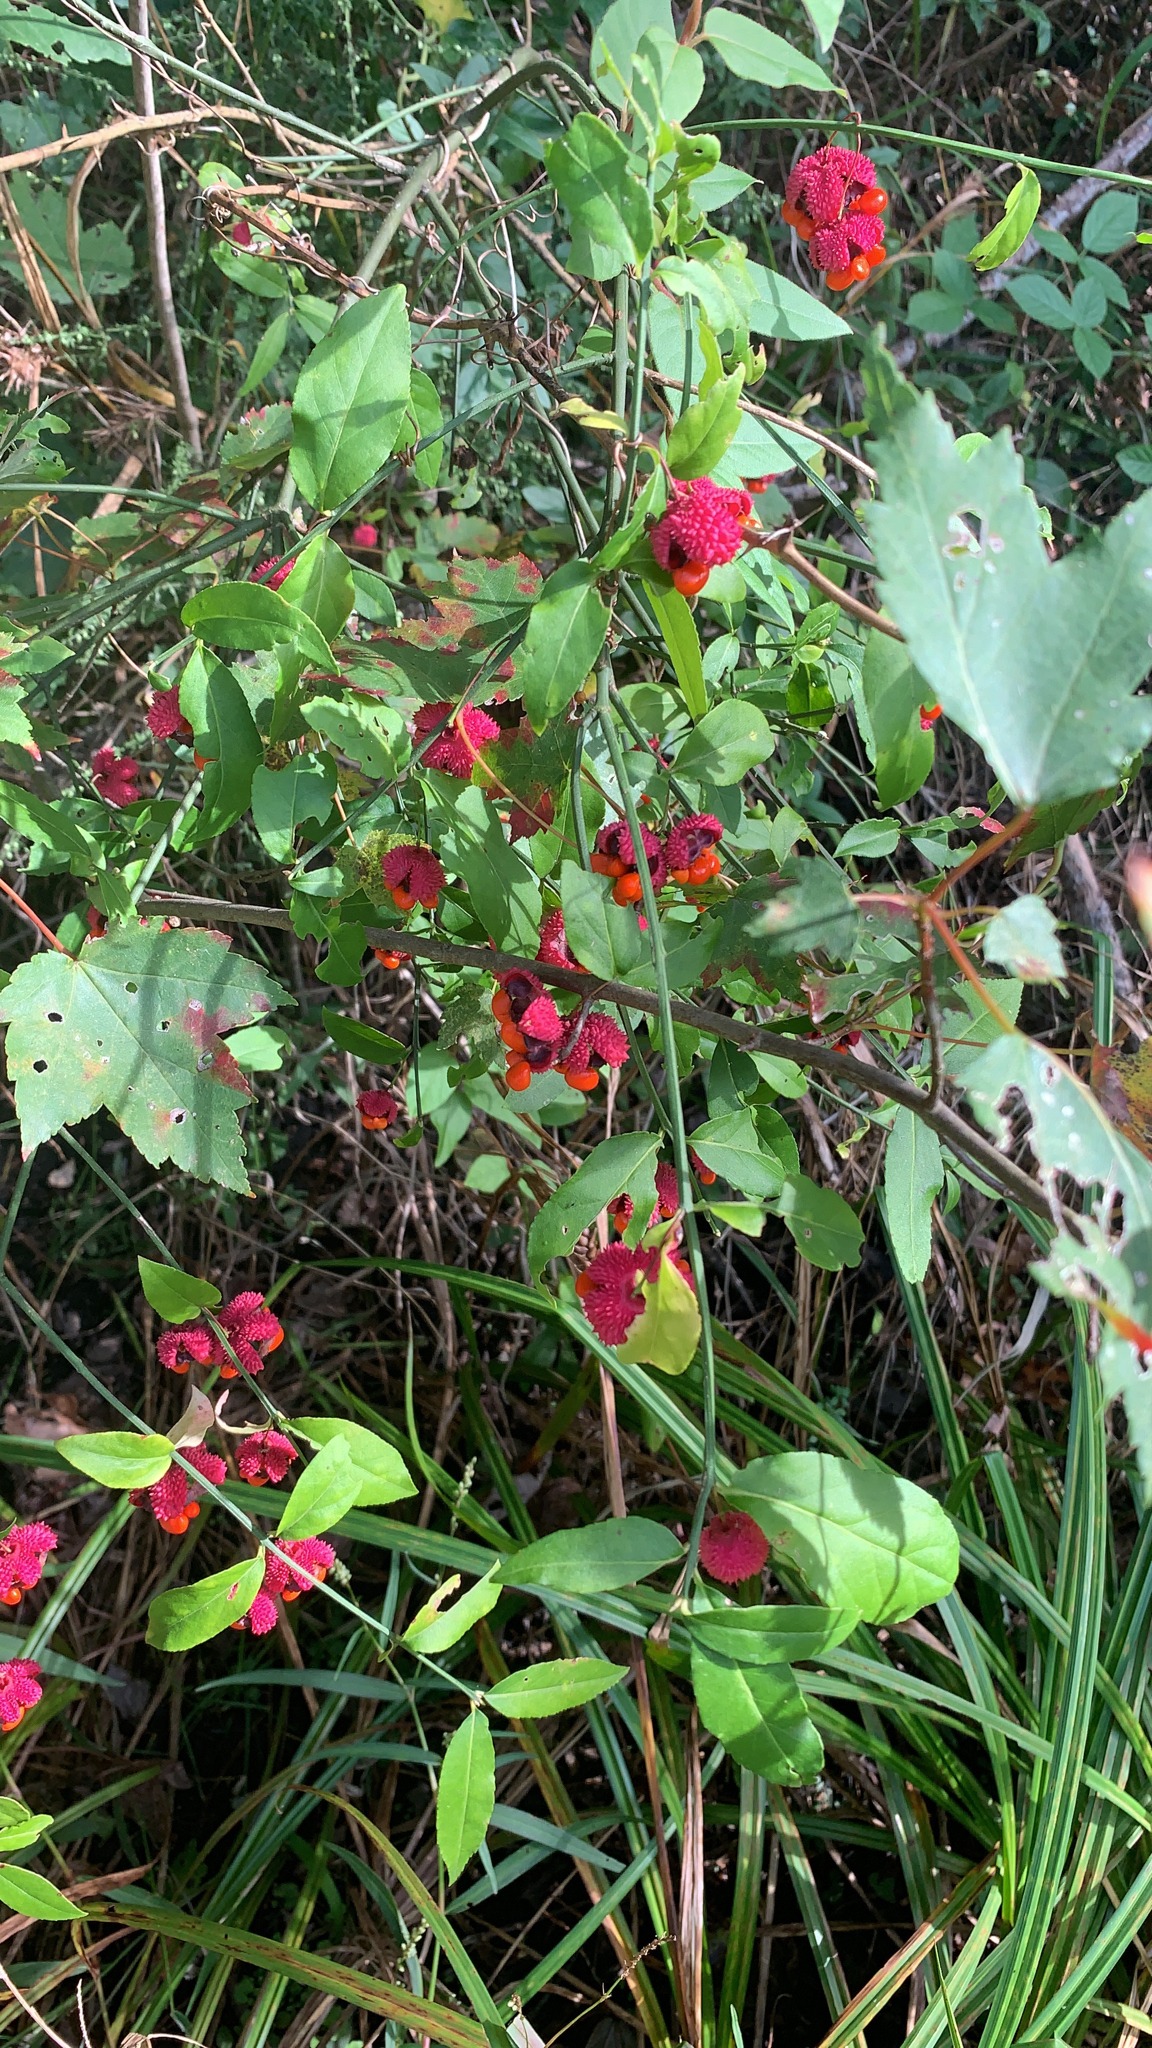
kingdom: Plantae
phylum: Tracheophyta
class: Magnoliopsida
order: Celastrales
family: Celastraceae
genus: Euonymus
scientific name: Euonymus americanus
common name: Bursting-heart
